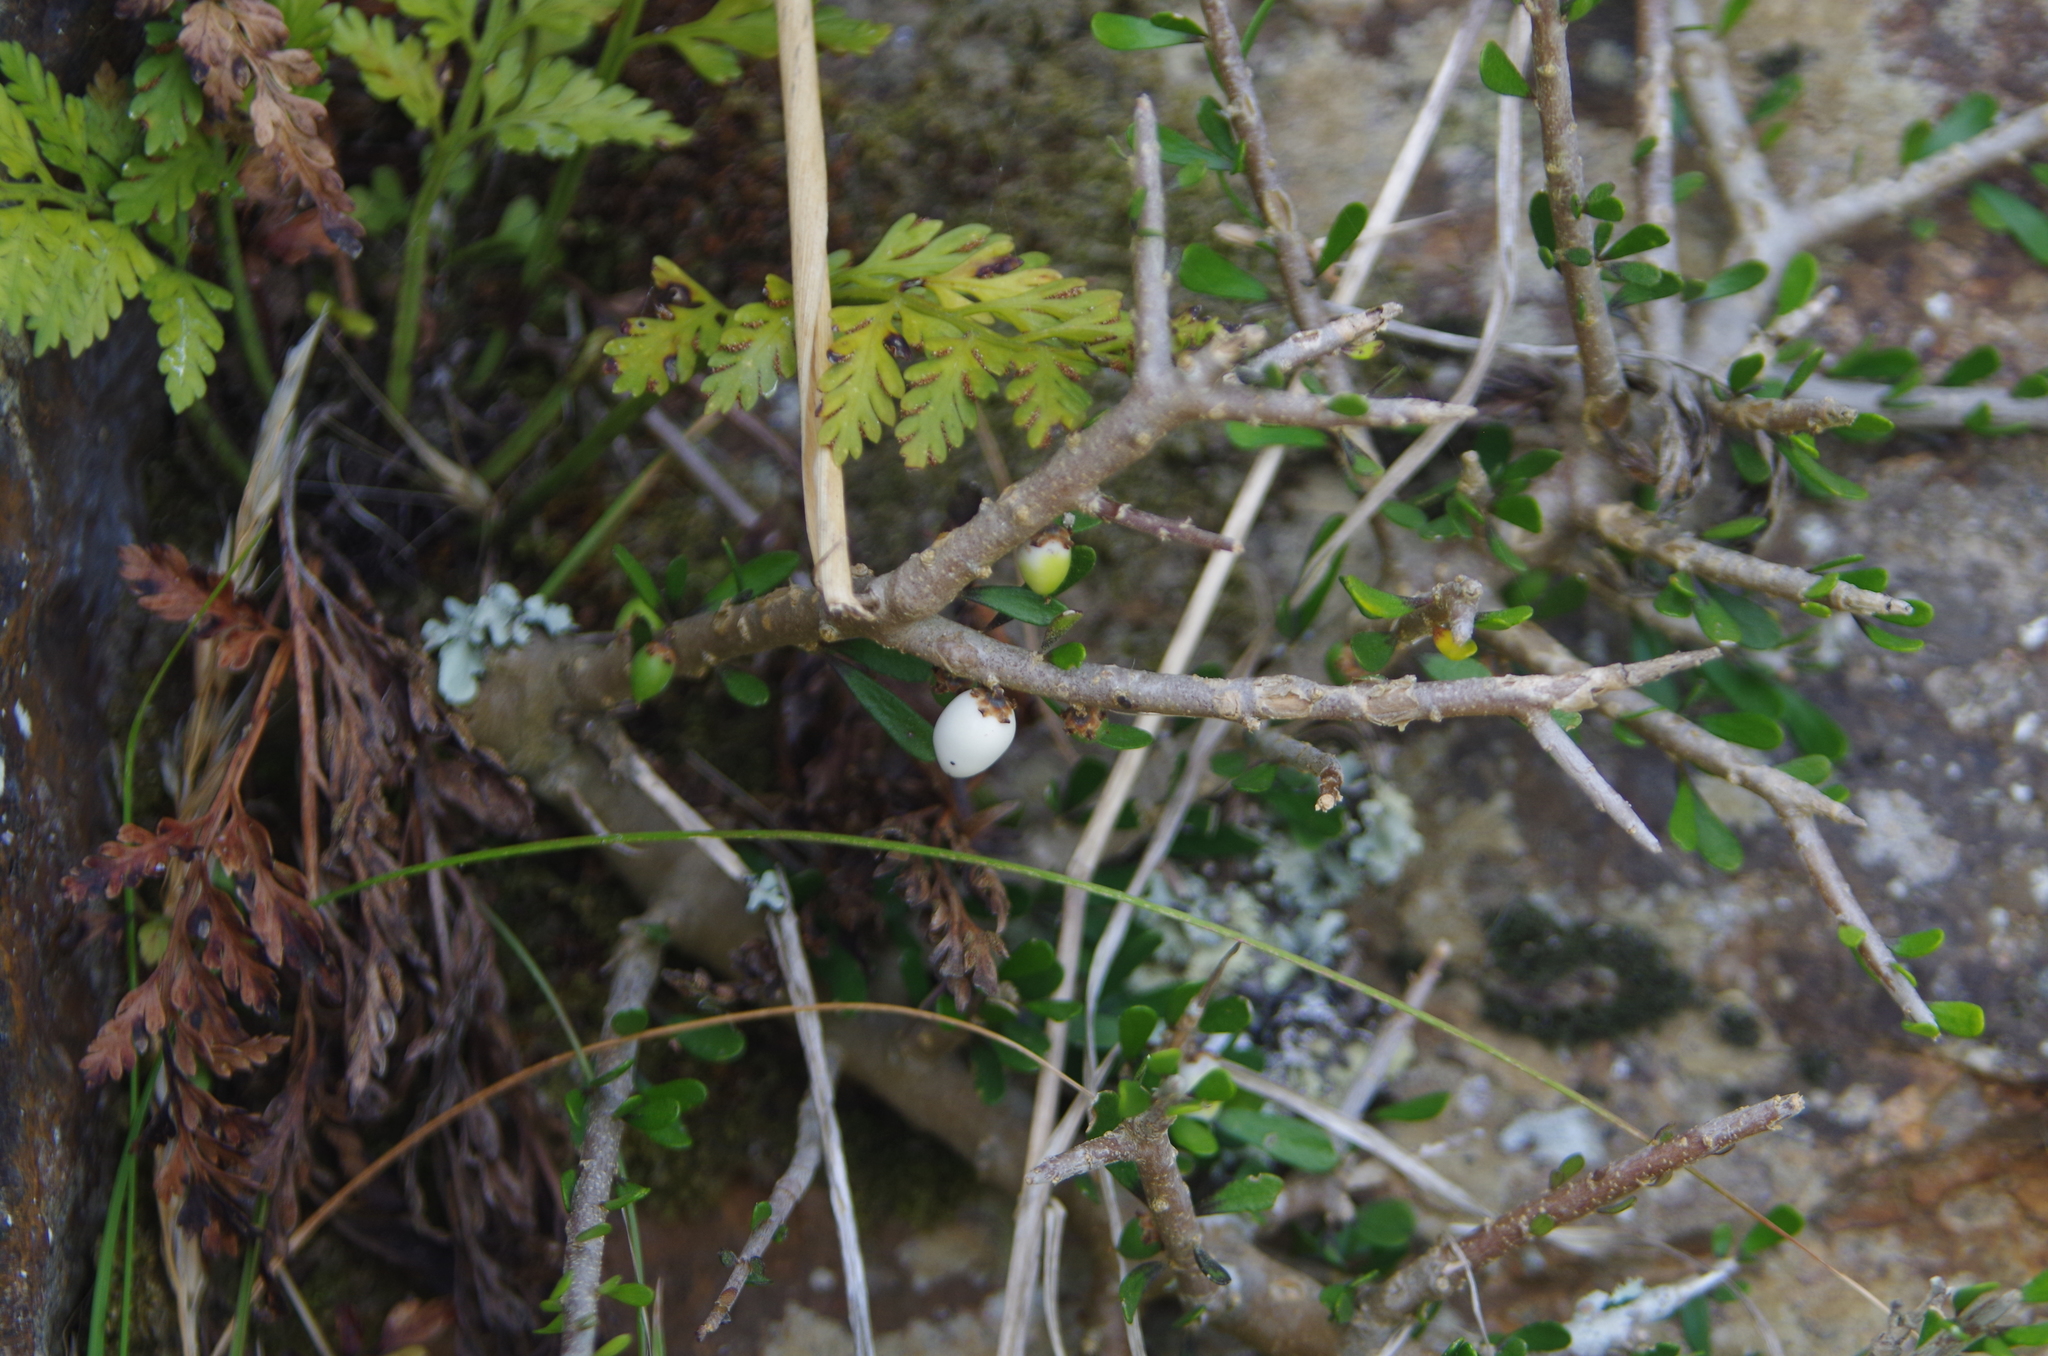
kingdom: Plantae
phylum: Tracheophyta
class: Magnoliopsida
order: Malpighiales
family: Violaceae
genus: Melicytus
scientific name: Melicytus alpinus
